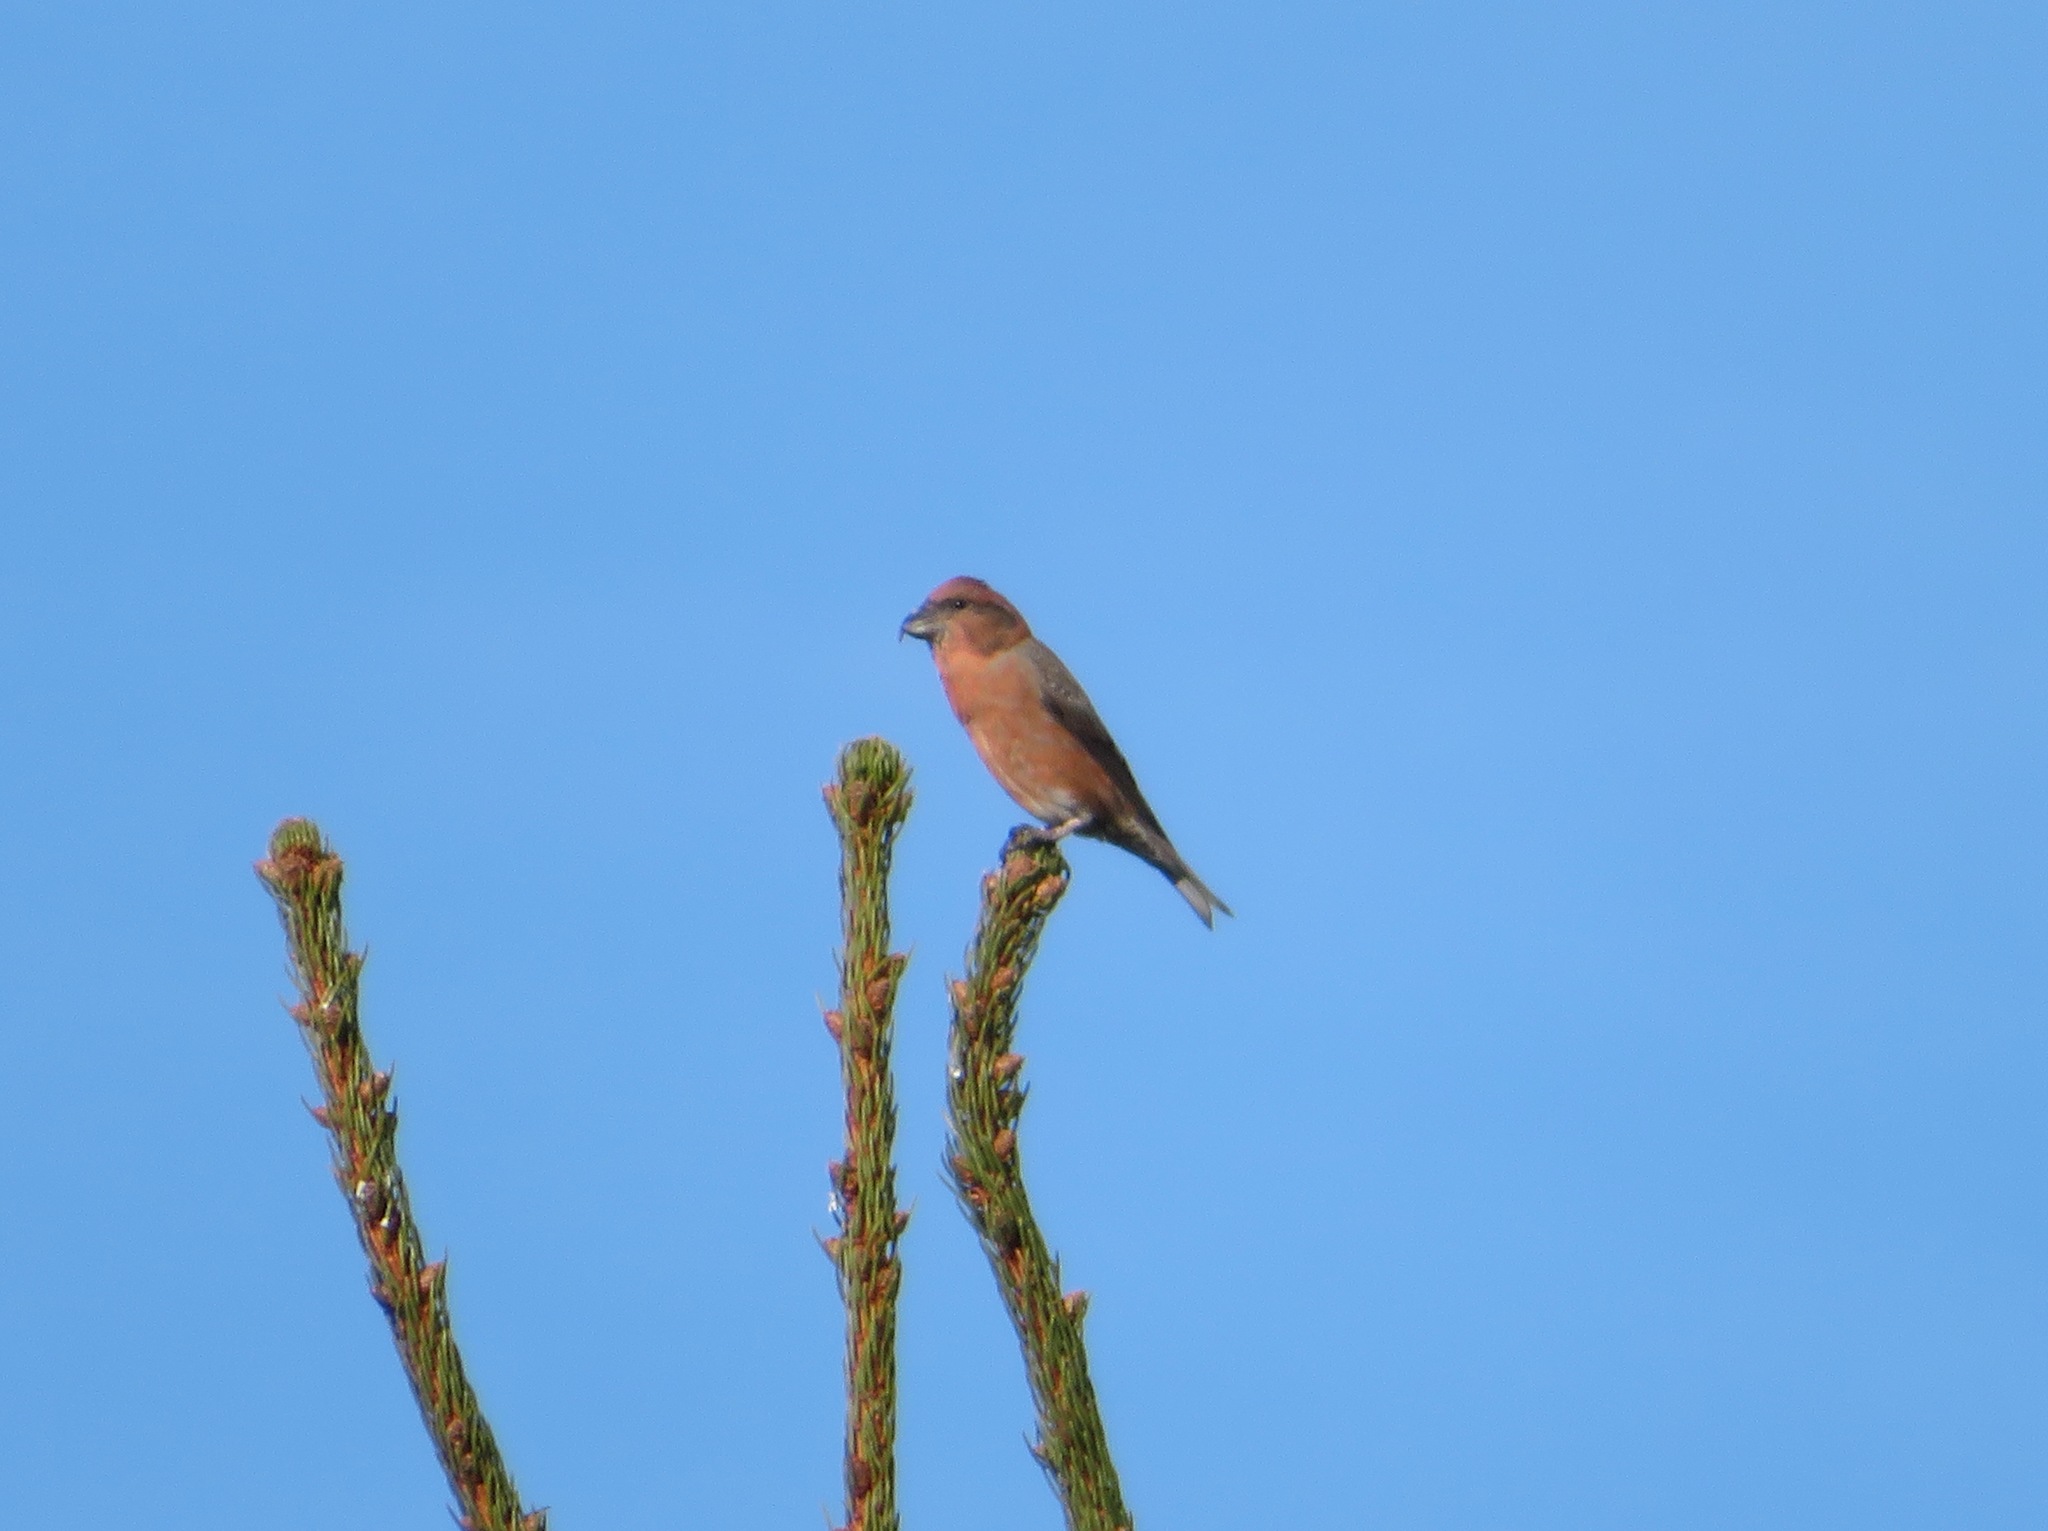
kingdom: Animalia
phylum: Chordata
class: Aves
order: Passeriformes
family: Fringillidae
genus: Loxia
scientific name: Loxia curvirostra
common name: Red crossbill
